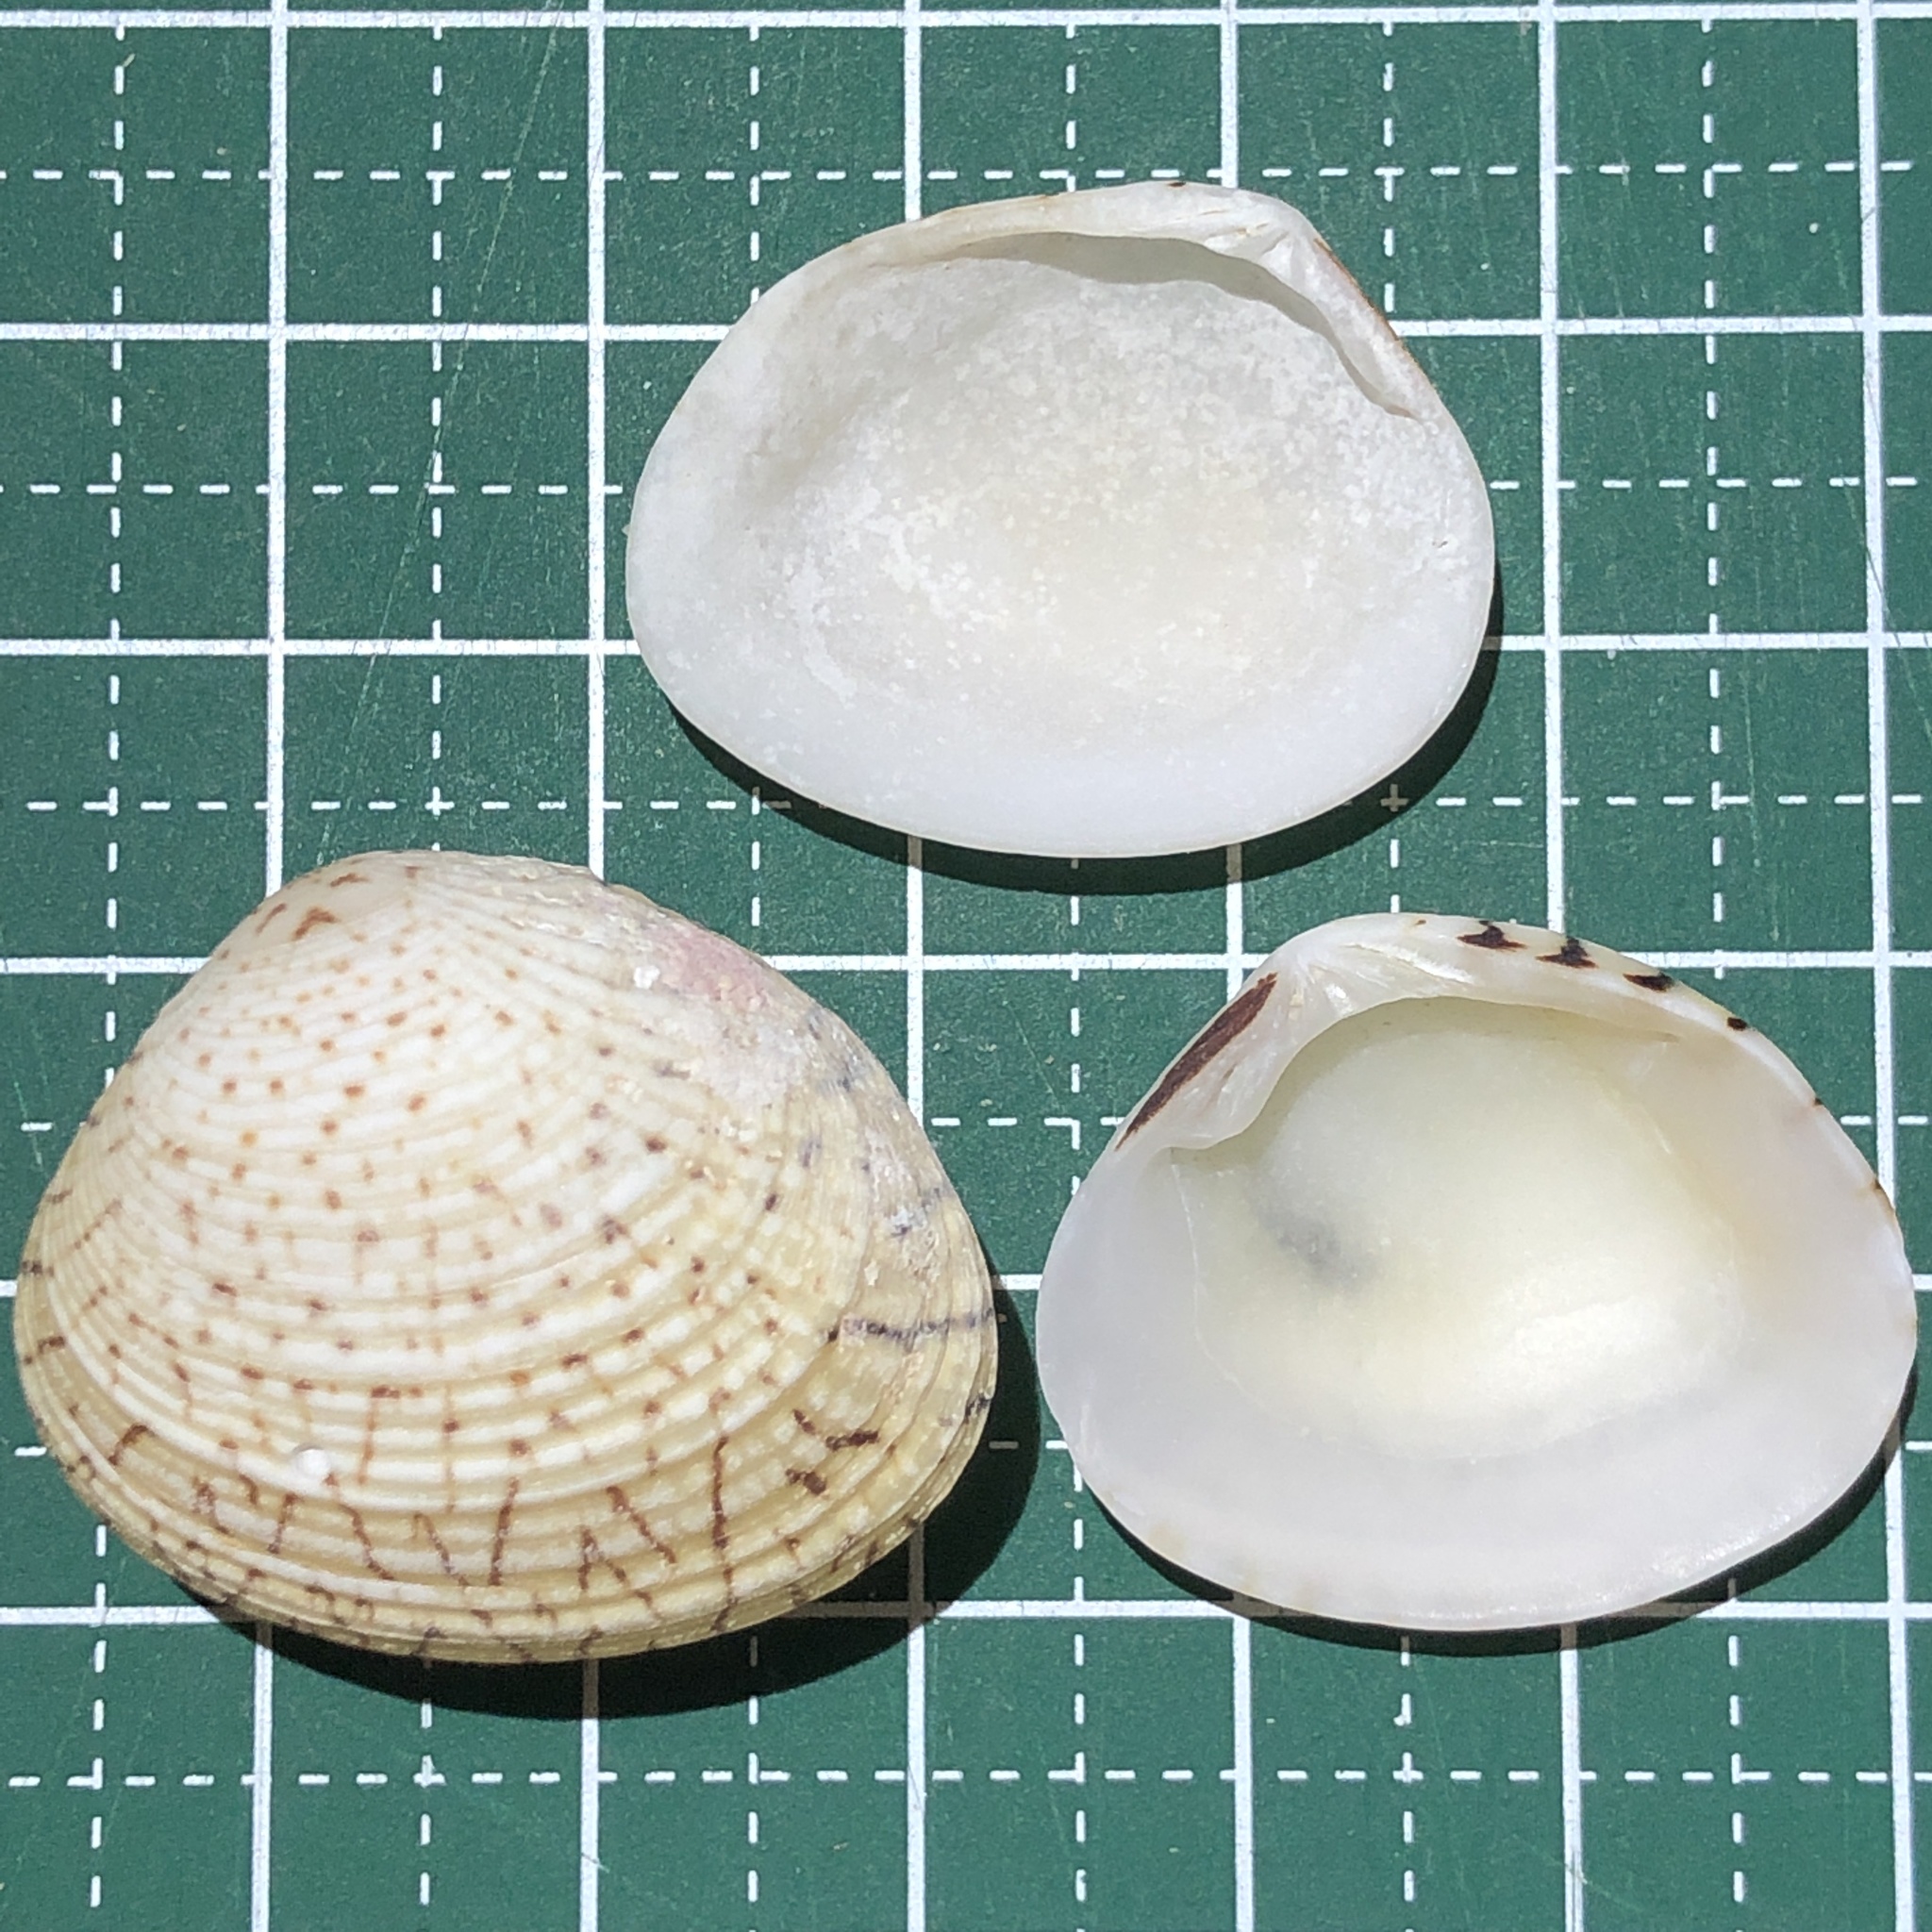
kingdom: Animalia
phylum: Mollusca
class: Bivalvia
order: Venerida
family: Veneridae
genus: Gafrarium
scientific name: Gafrarium dispar
